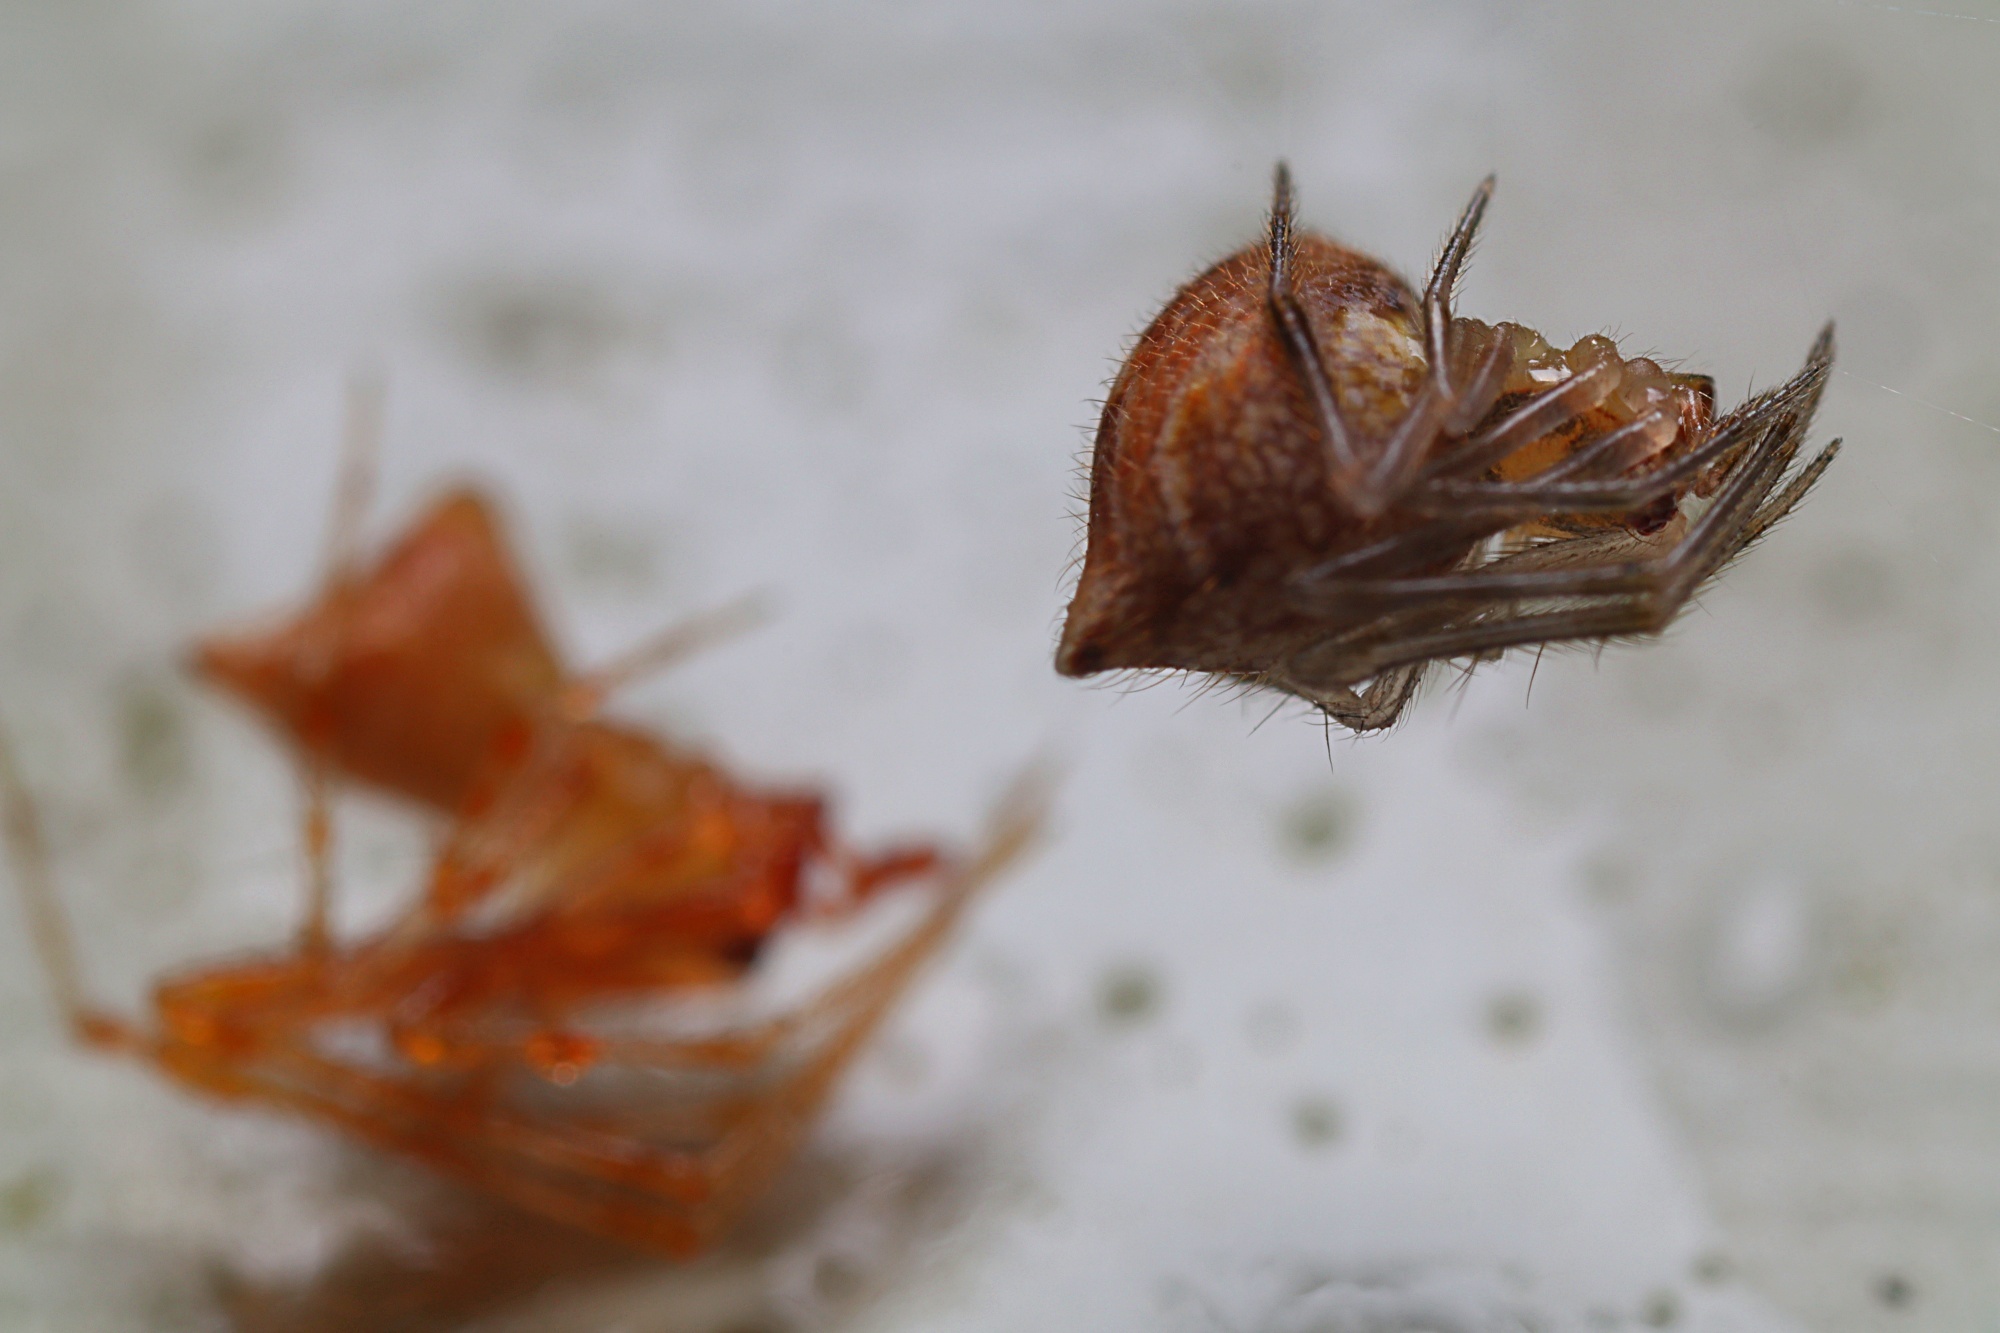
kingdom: Animalia
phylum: Arthropoda
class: Arachnida
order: Araneae
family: Theridiidae
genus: Cryptachaea
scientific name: Cryptachaea meraukensis
